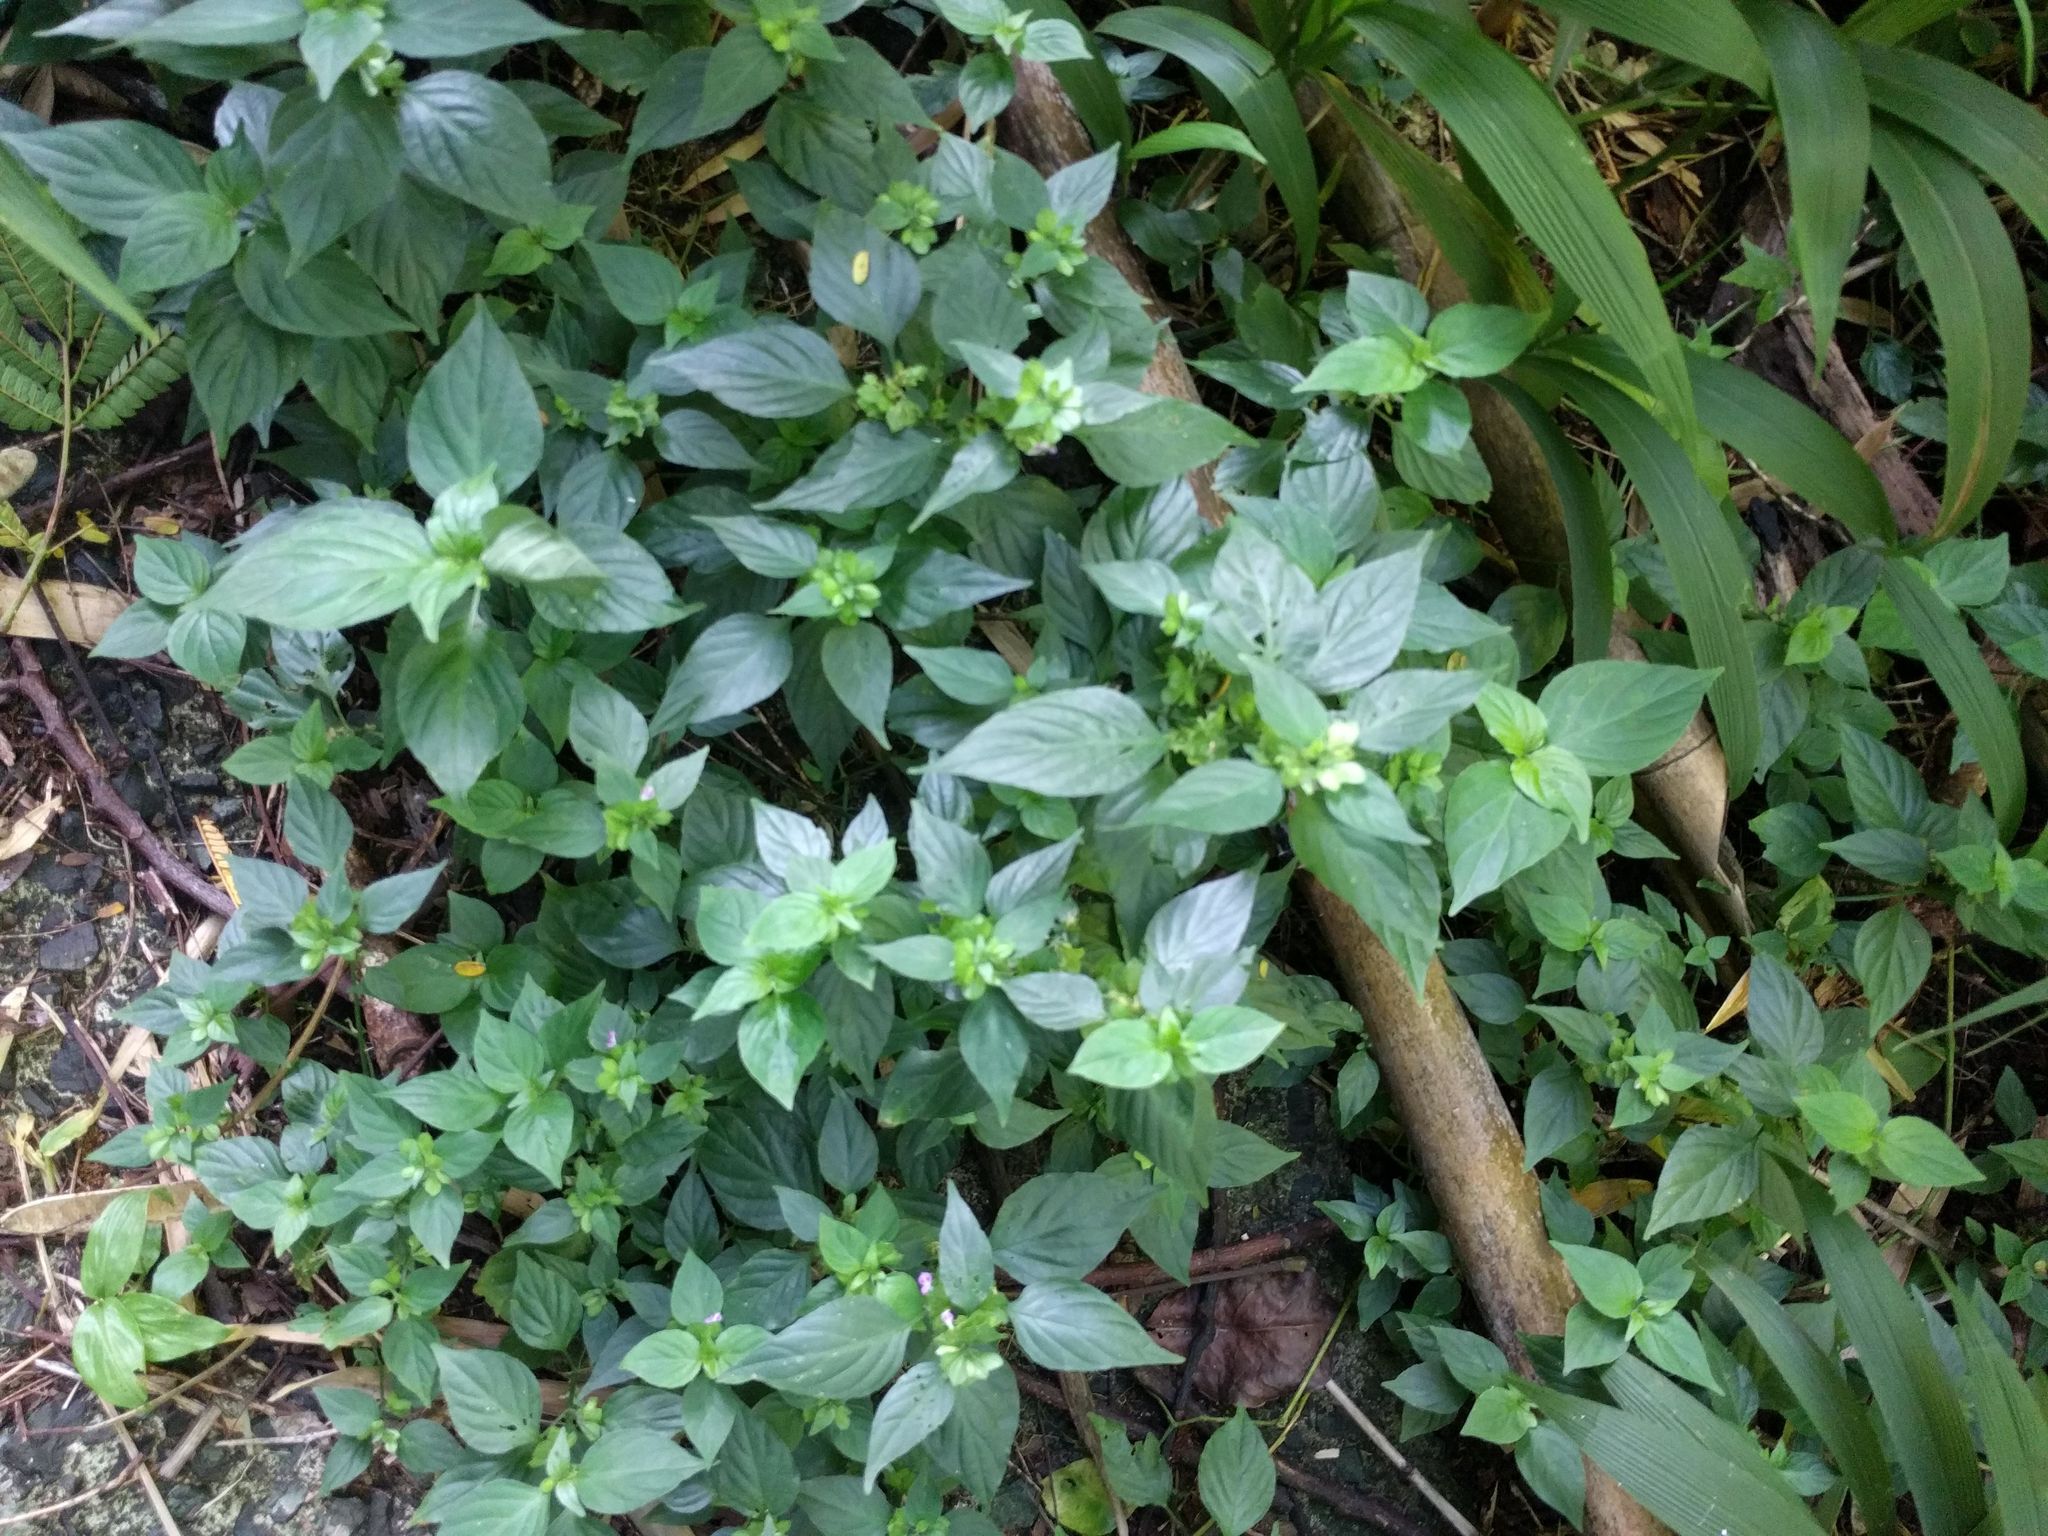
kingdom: Plantae
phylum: Tracheophyta
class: Magnoliopsida
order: Lamiales
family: Acanthaceae
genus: Dicliptera
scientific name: Dicliptera chinensis
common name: Chinese foldwing
